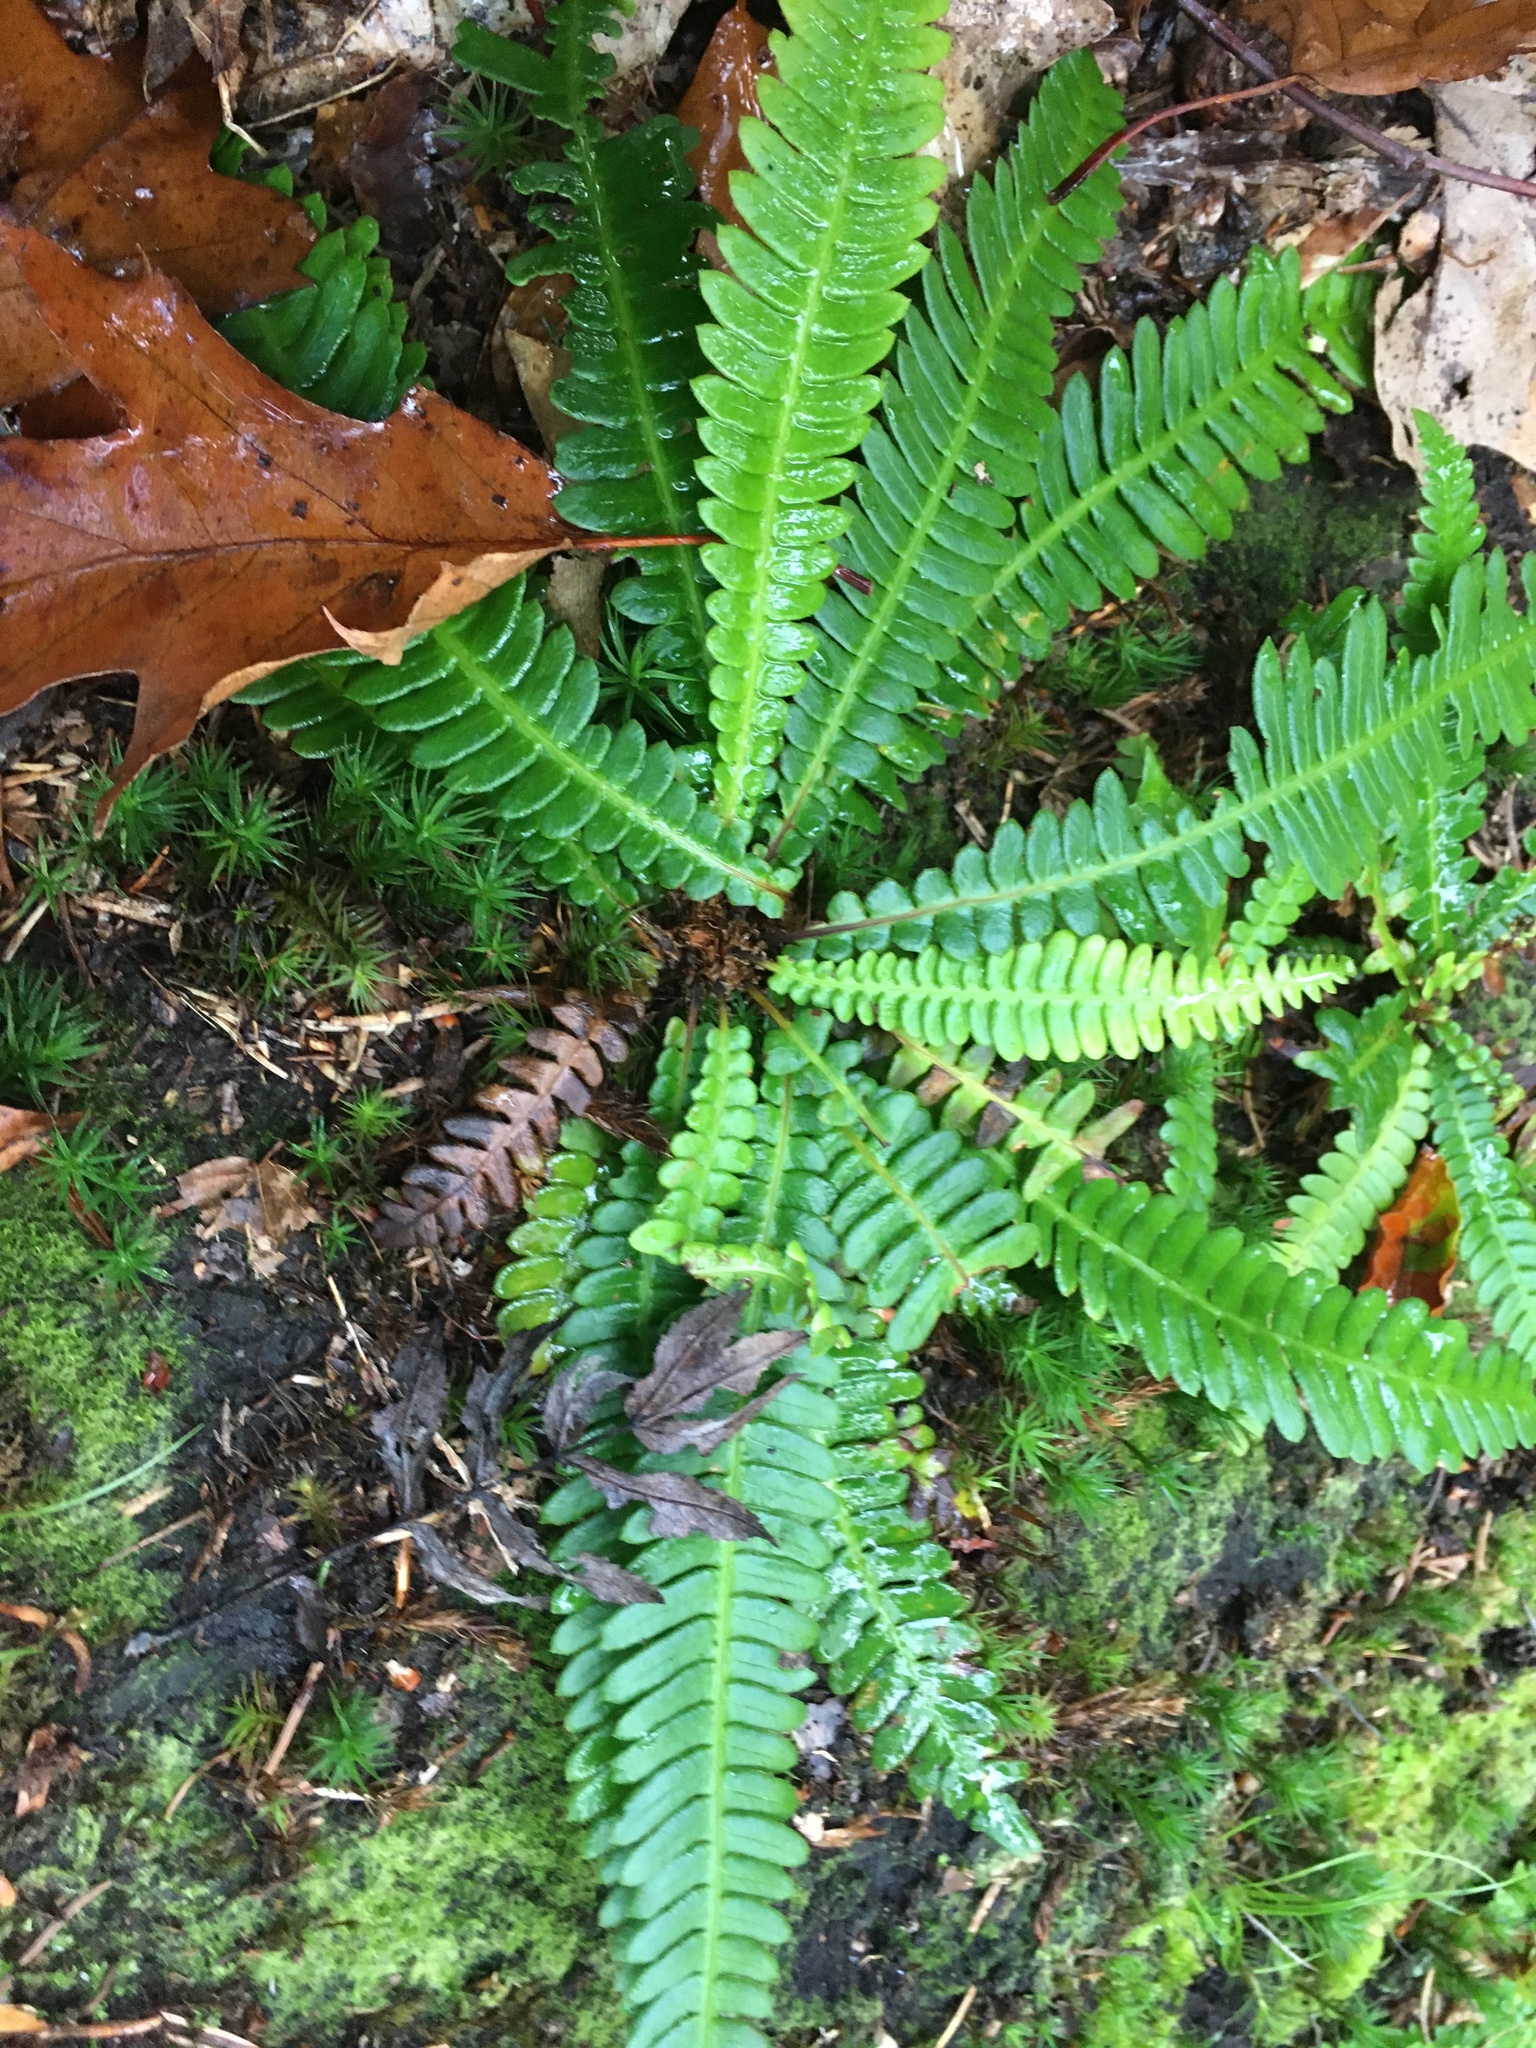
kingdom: Plantae
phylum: Tracheophyta
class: Polypodiopsida
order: Polypodiales
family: Blechnaceae
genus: Struthiopteris
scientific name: Struthiopteris spicant
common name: Deer fern
